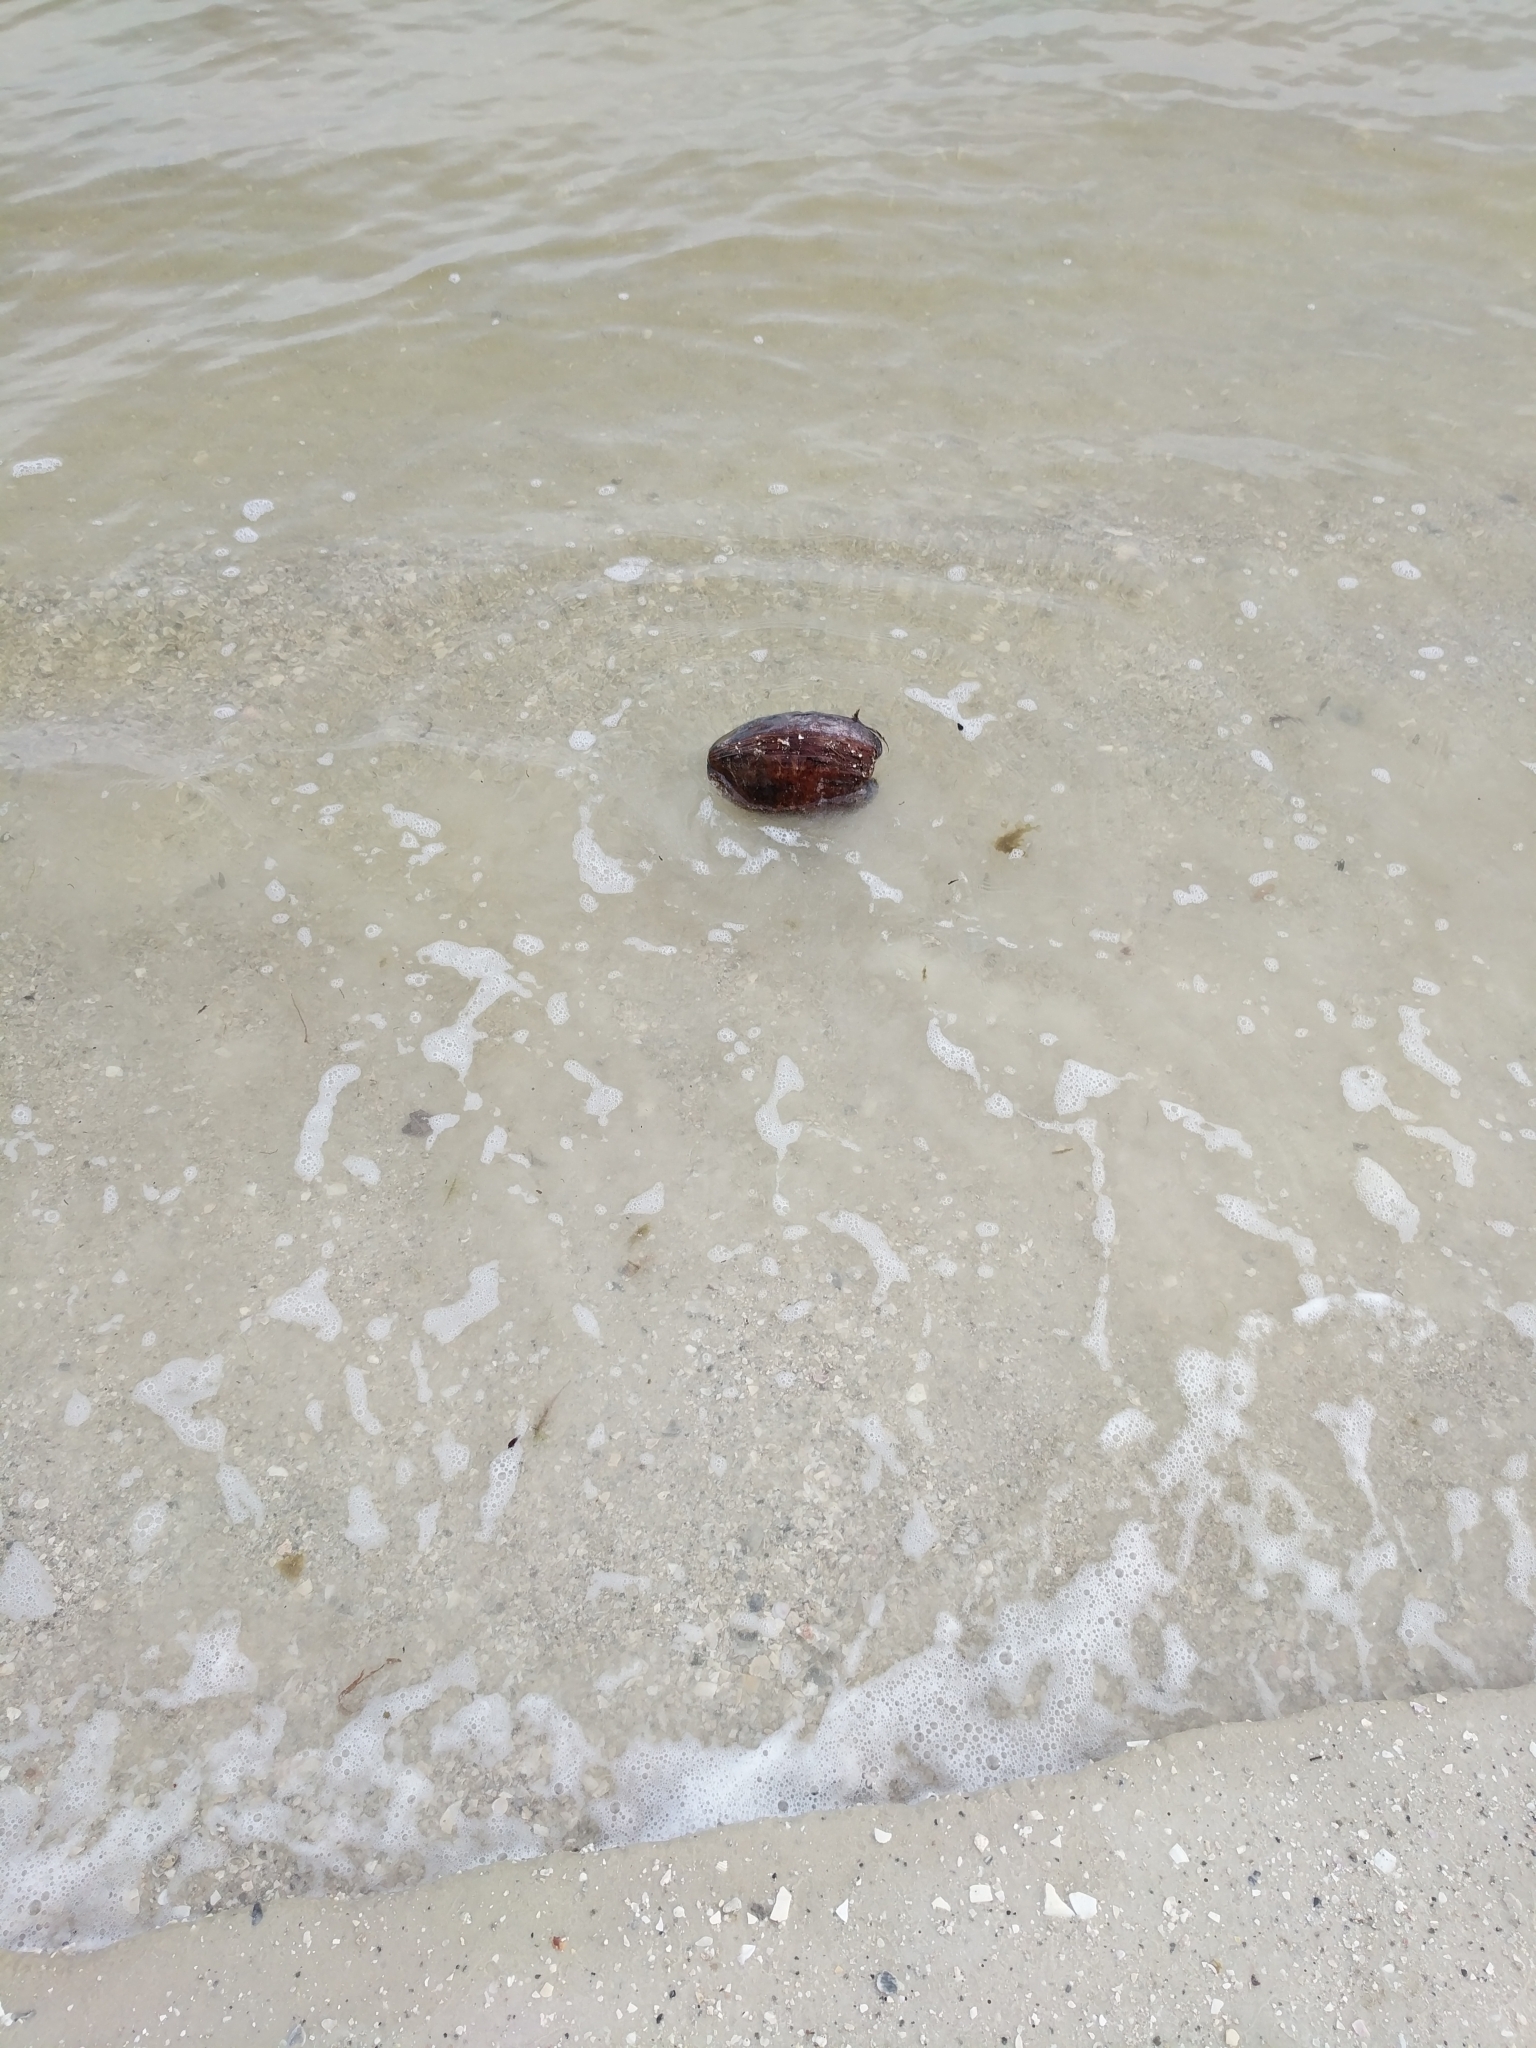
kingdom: Plantae
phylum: Tracheophyta
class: Liliopsida
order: Arecales
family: Arecaceae
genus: Cocos
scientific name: Cocos nucifera
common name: Coconut palm
